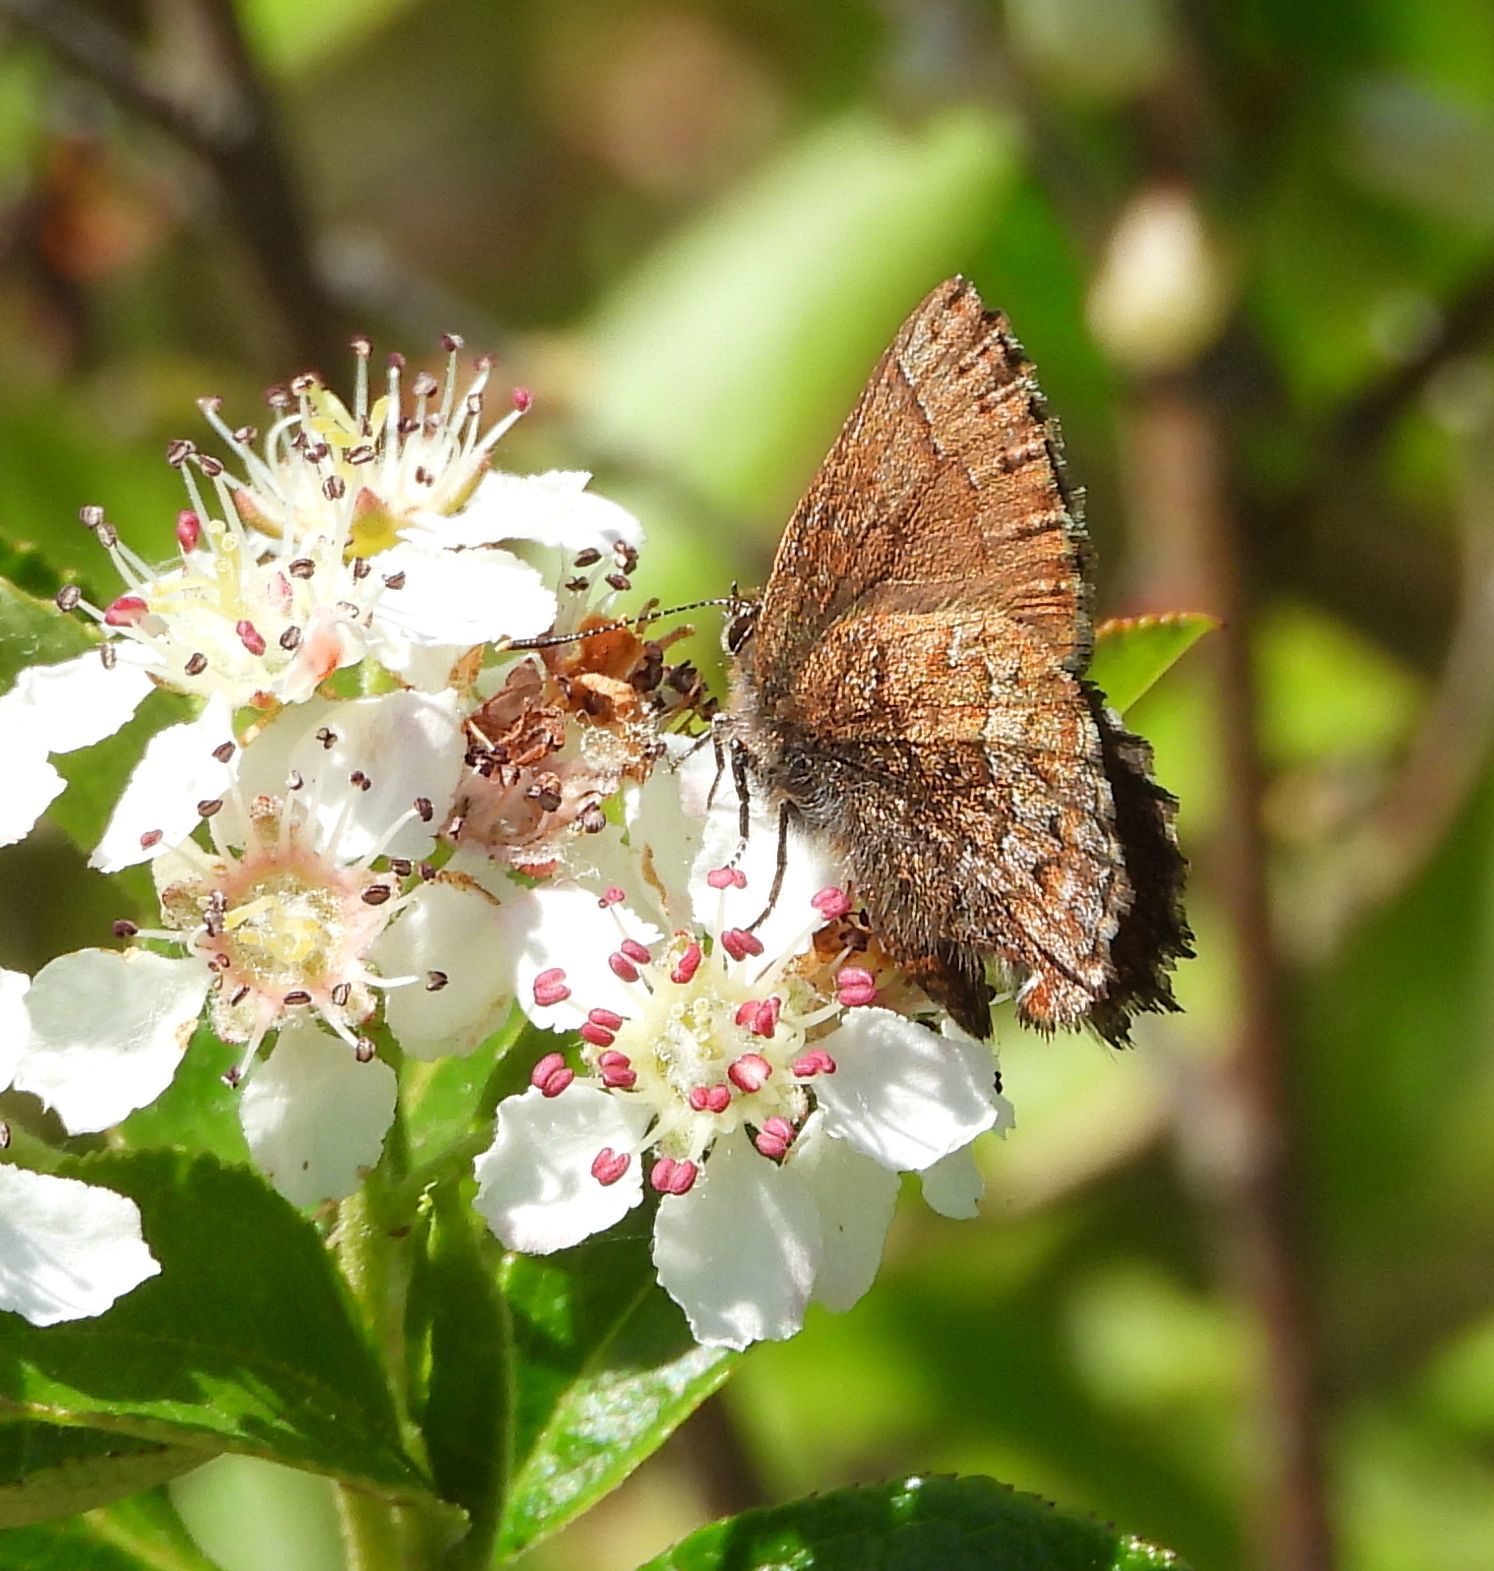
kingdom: Animalia
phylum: Arthropoda
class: Insecta
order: Lepidoptera
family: Lycaenidae
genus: Incisalia
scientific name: Incisalia niphon
